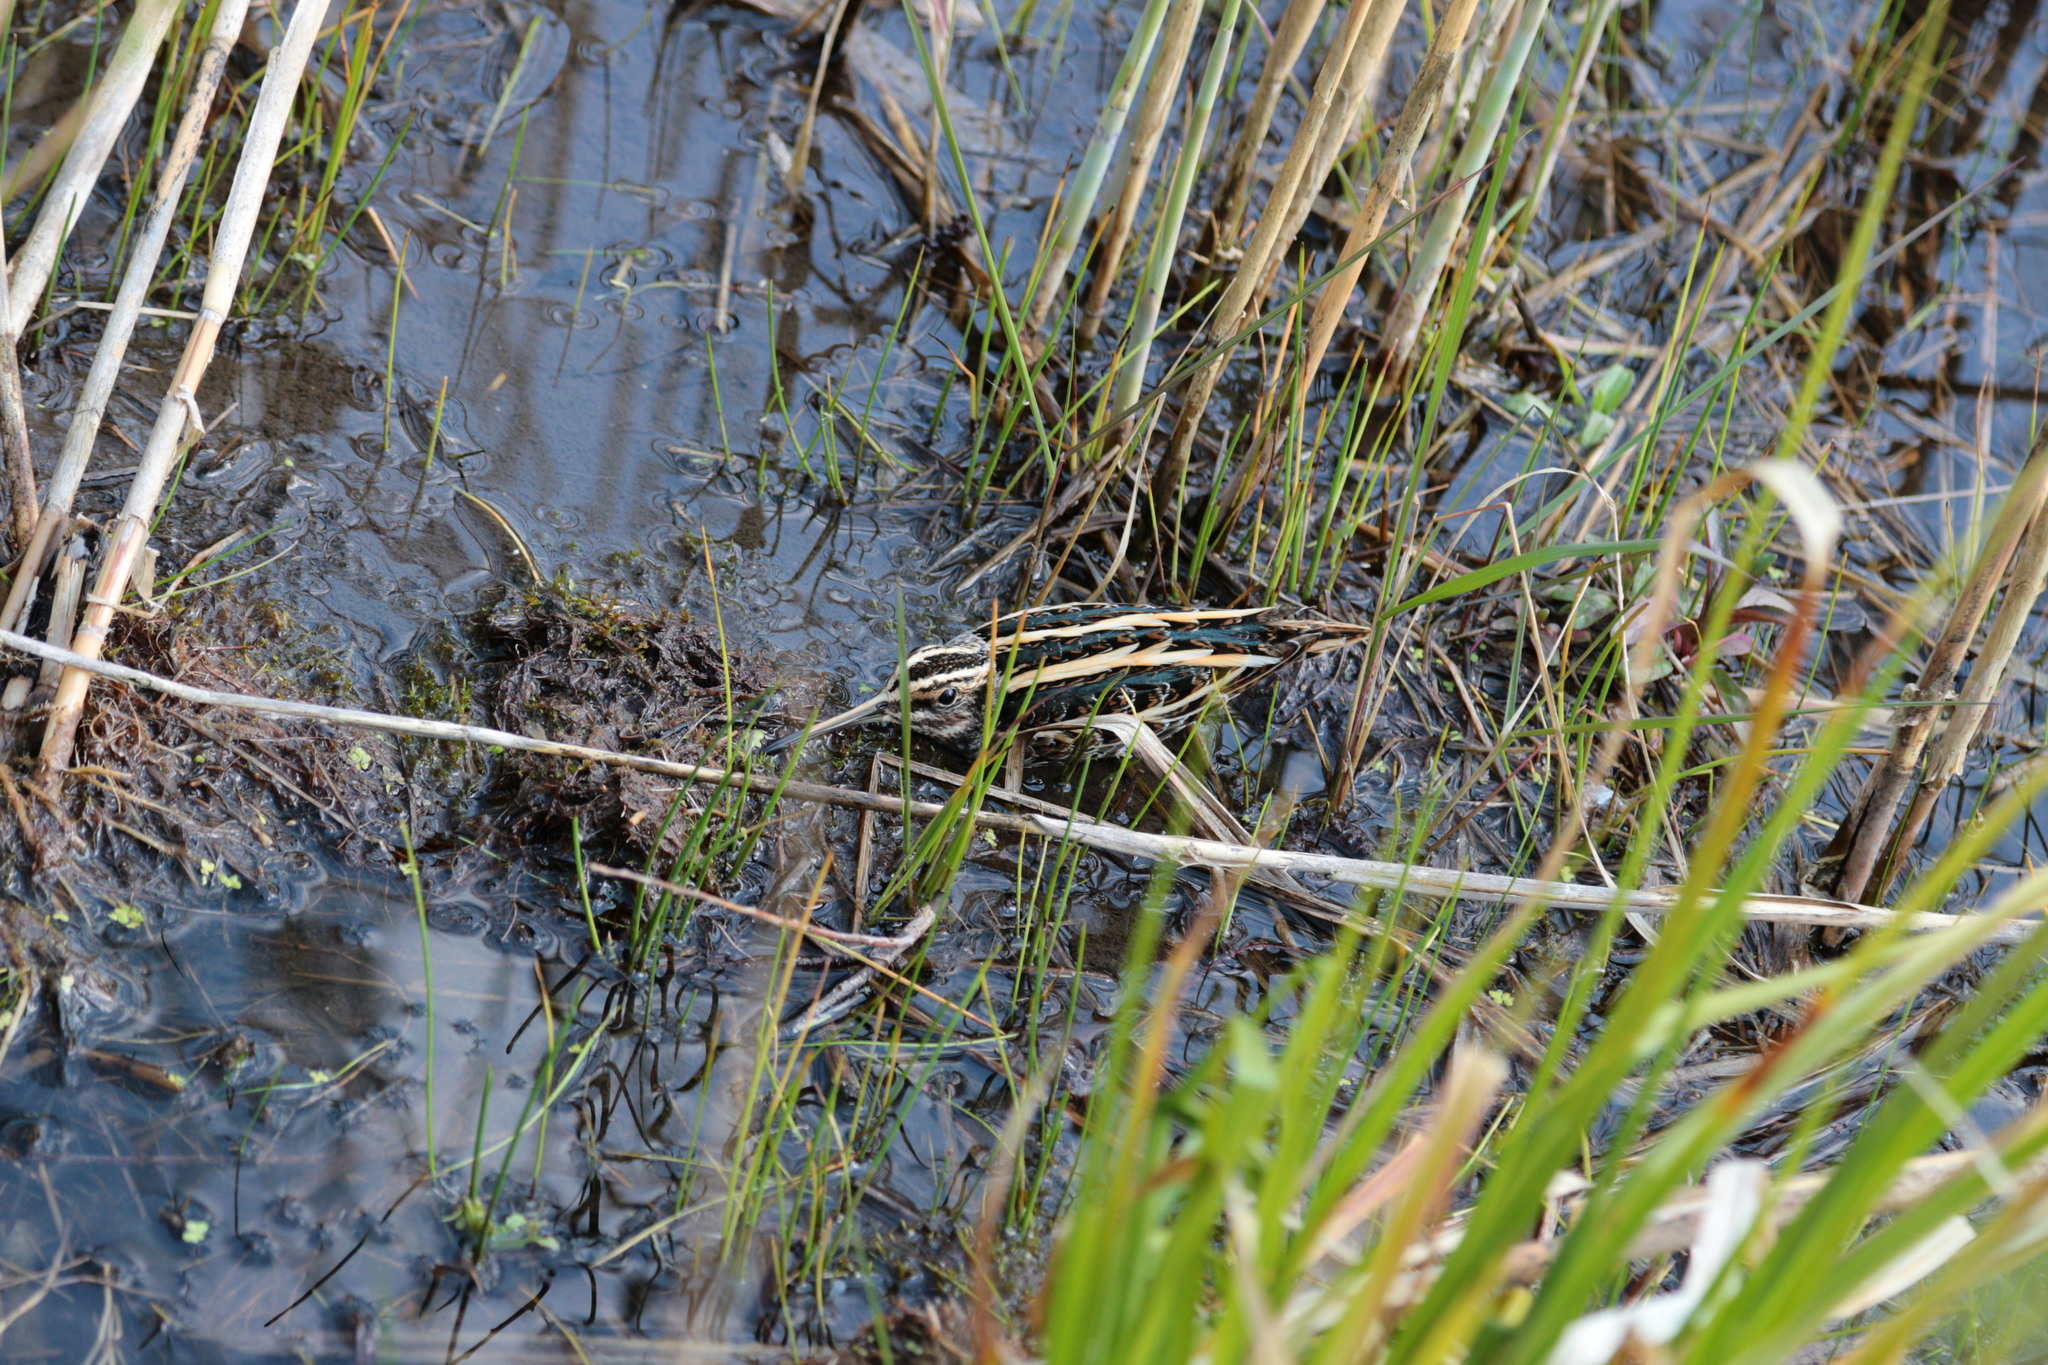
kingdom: Animalia
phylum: Chordata
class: Aves
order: Charadriiformes
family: Scolopacidae
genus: Lymnocryptes
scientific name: Lymnocryptes minimus
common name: Jack snipe
